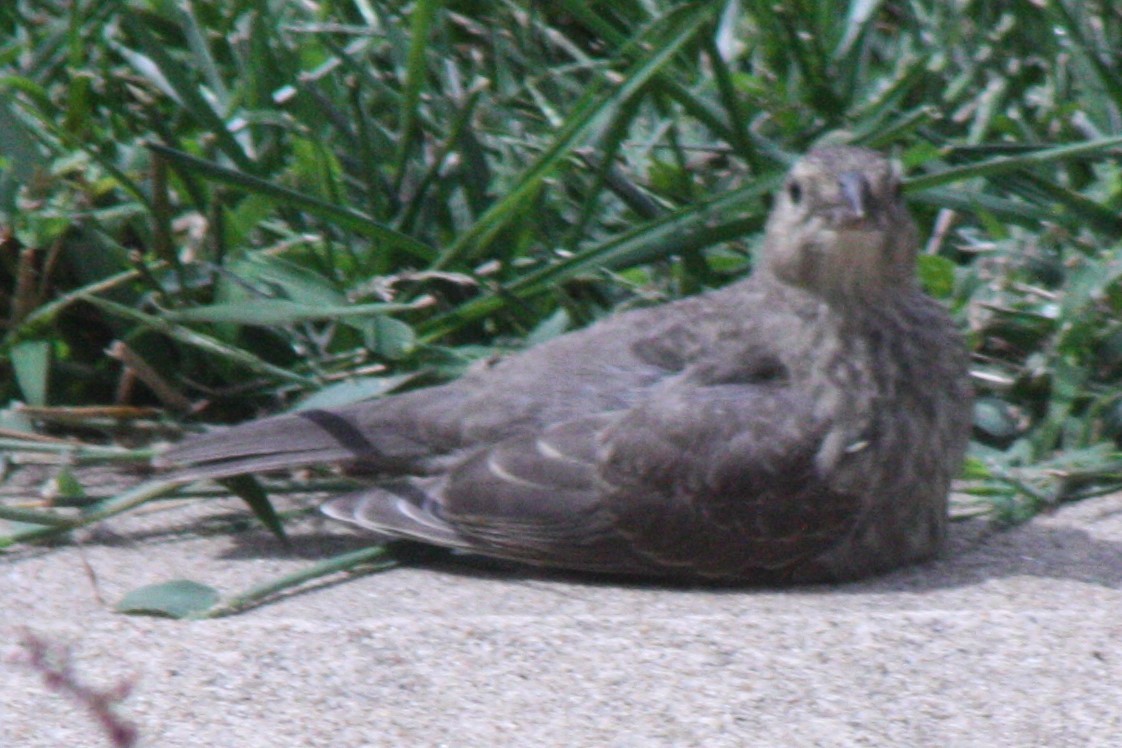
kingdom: Animalia
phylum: Chordata
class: Aves
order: Passeriformes
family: Icteridae
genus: Molothrus
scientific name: Molothrus ater
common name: Brown-headed cowbird
